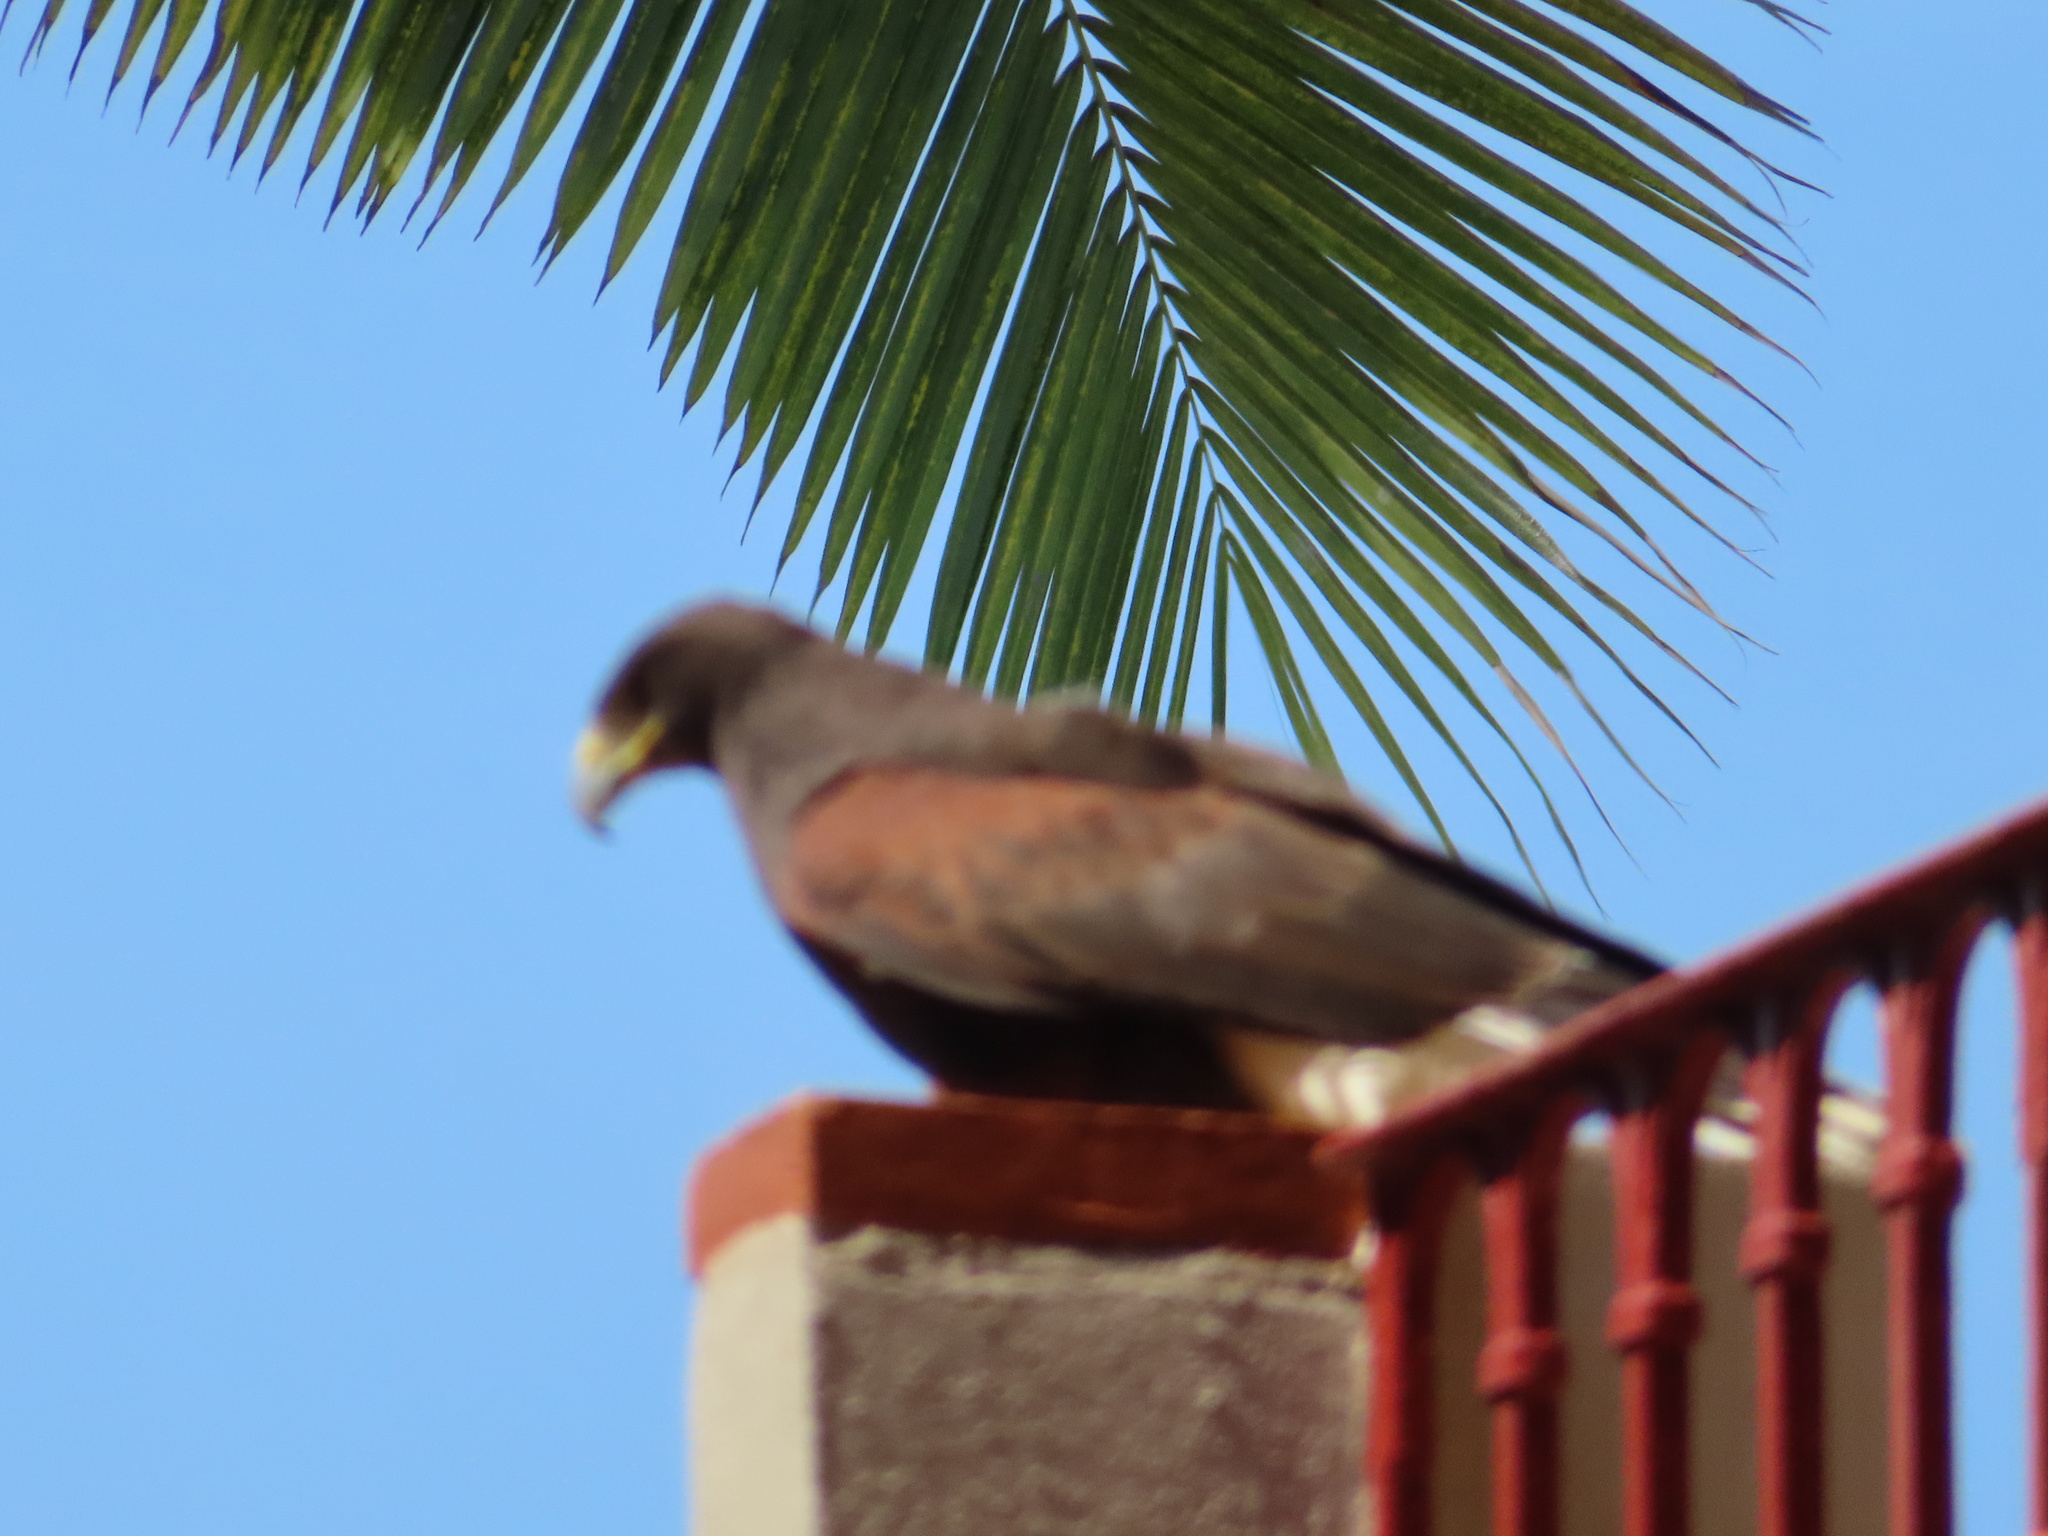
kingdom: Animalia
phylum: Chordata
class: Aves
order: Accipitriformes
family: Accipitridae
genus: Parabuteo
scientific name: Parabuteo unicinctus
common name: Harris's hawk
